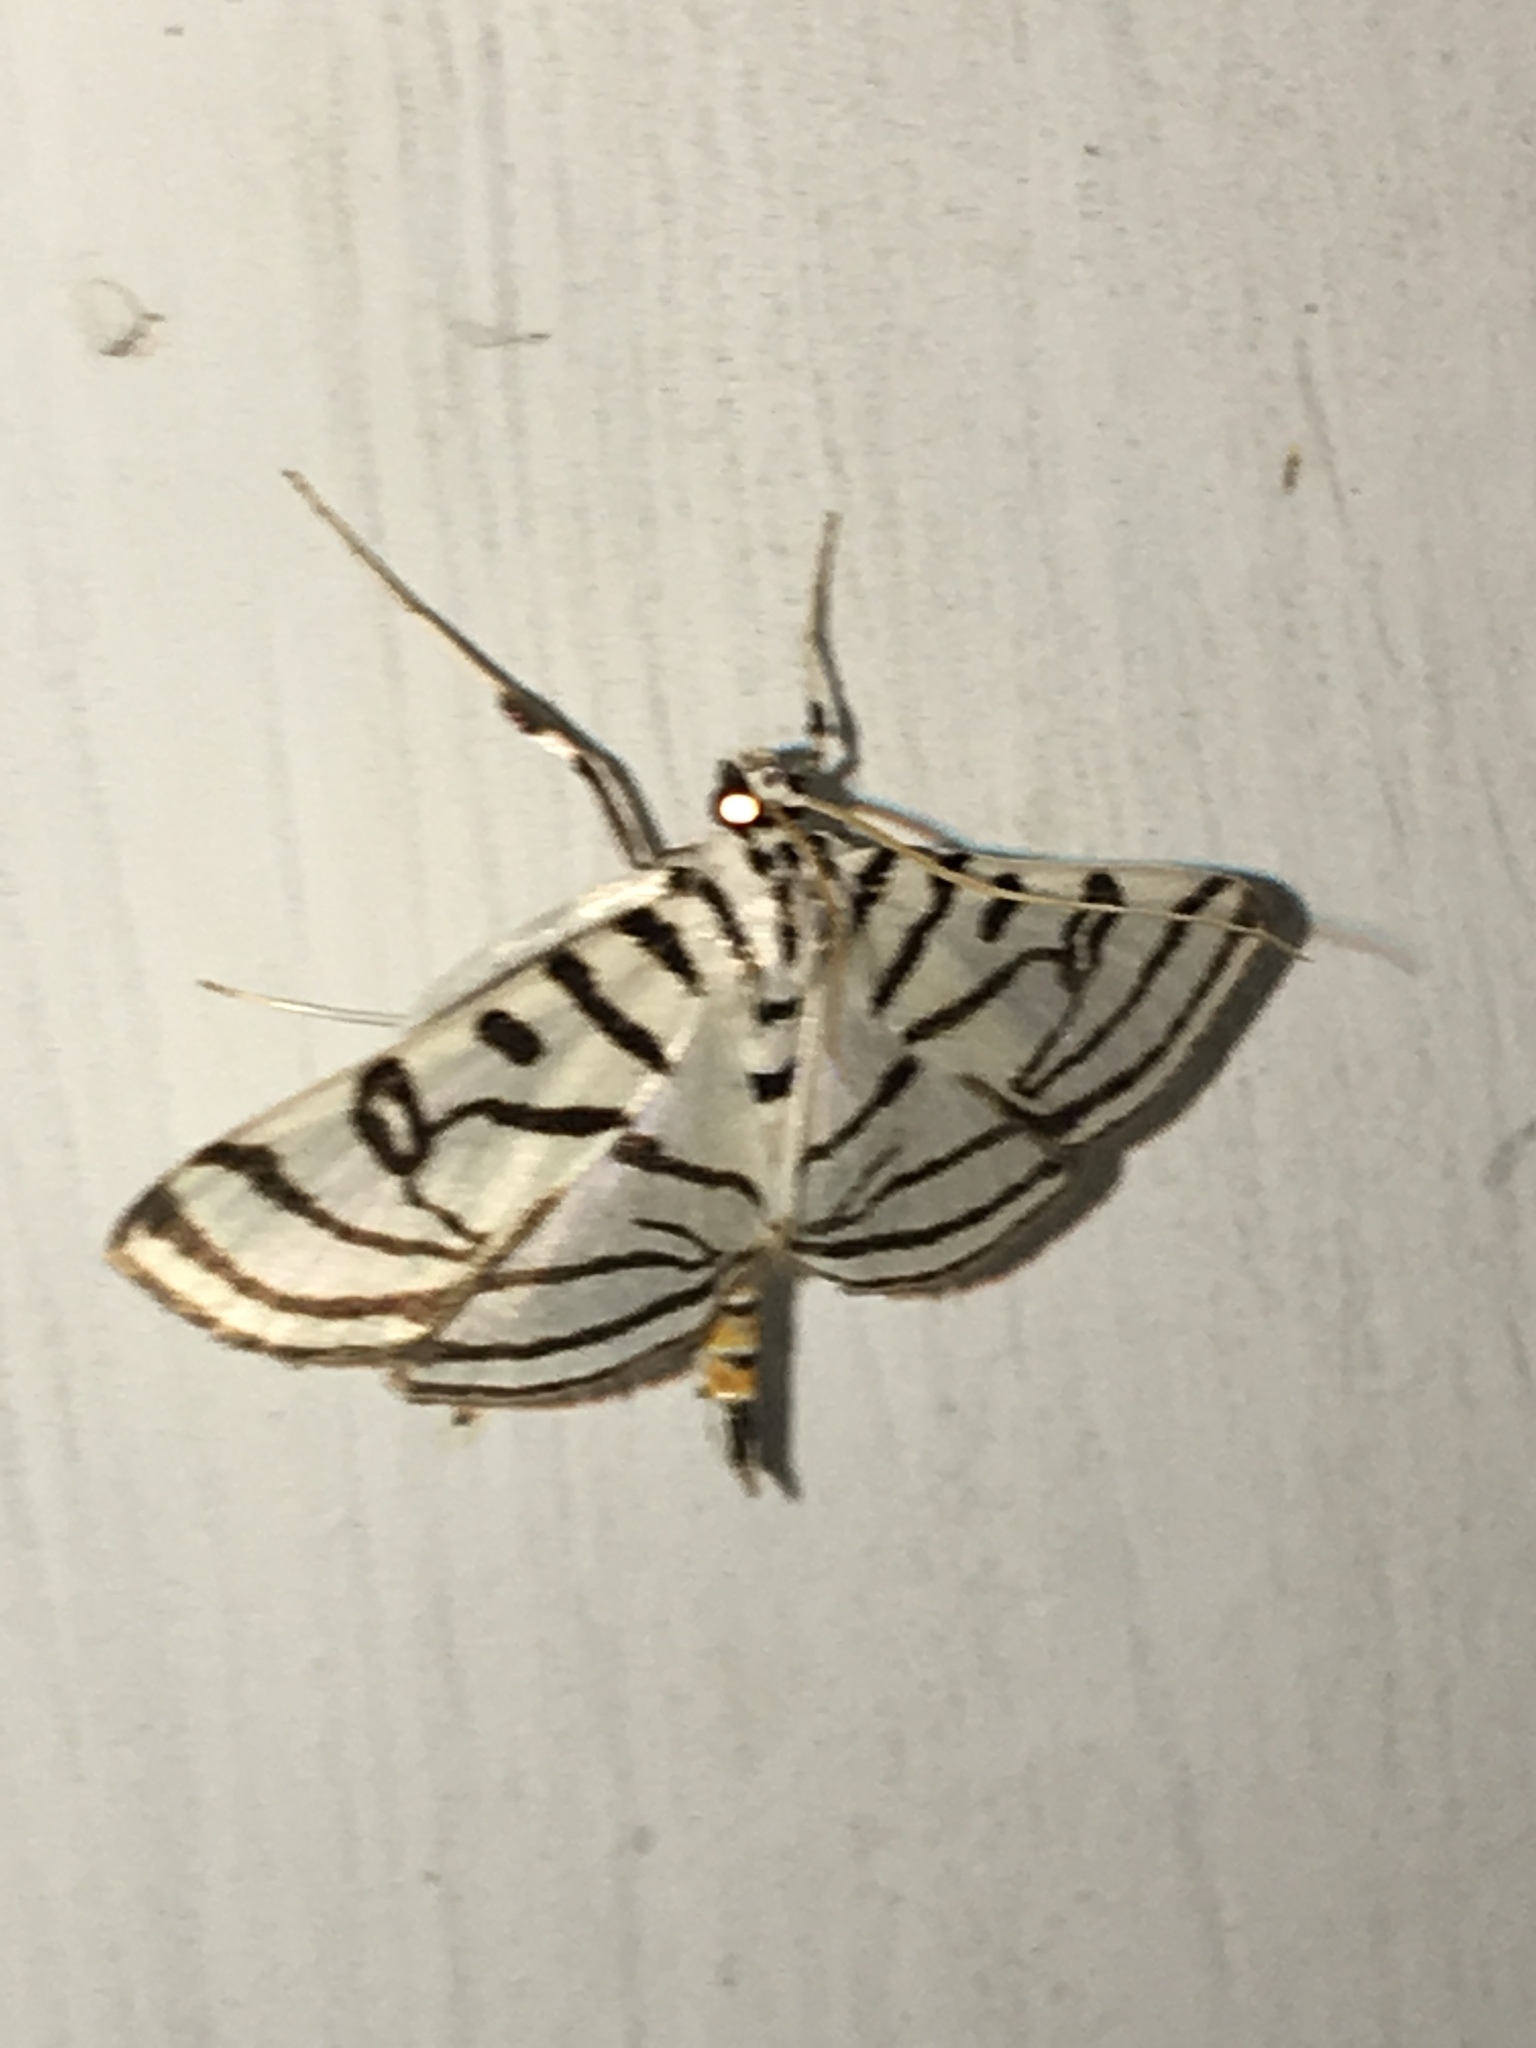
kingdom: Animalia
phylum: Arthropoda
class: Insecta
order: Lepidoptera
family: Crambidae
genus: Conchylodes
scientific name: Conchylodes ovulalis
